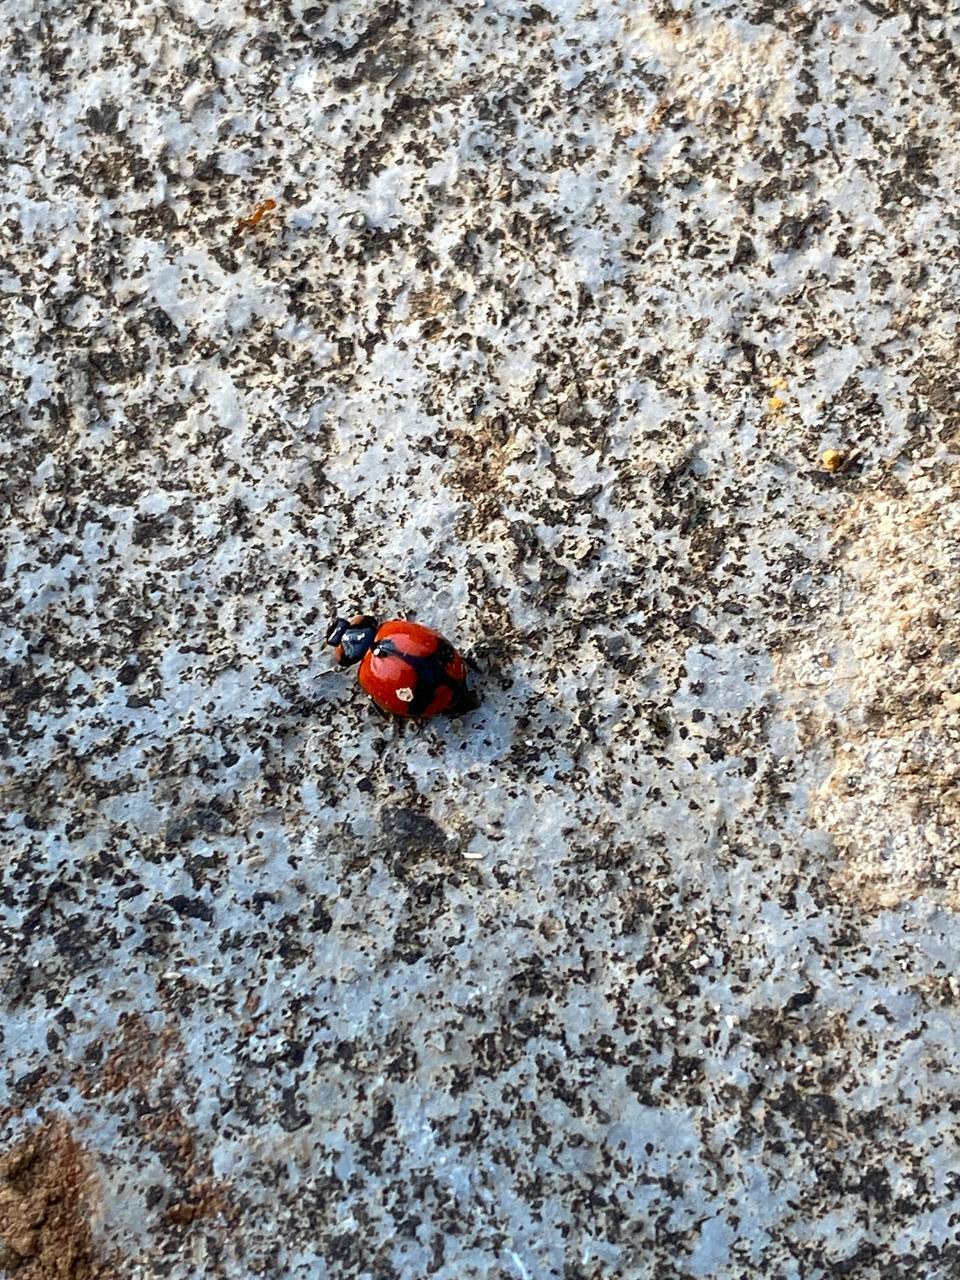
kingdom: Animalia
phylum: Arthropoda
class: Insecta
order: Coleoptera
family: Coccinellidae
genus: Coccinella
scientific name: Coccinella transversalis
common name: Transverse lady beetle
